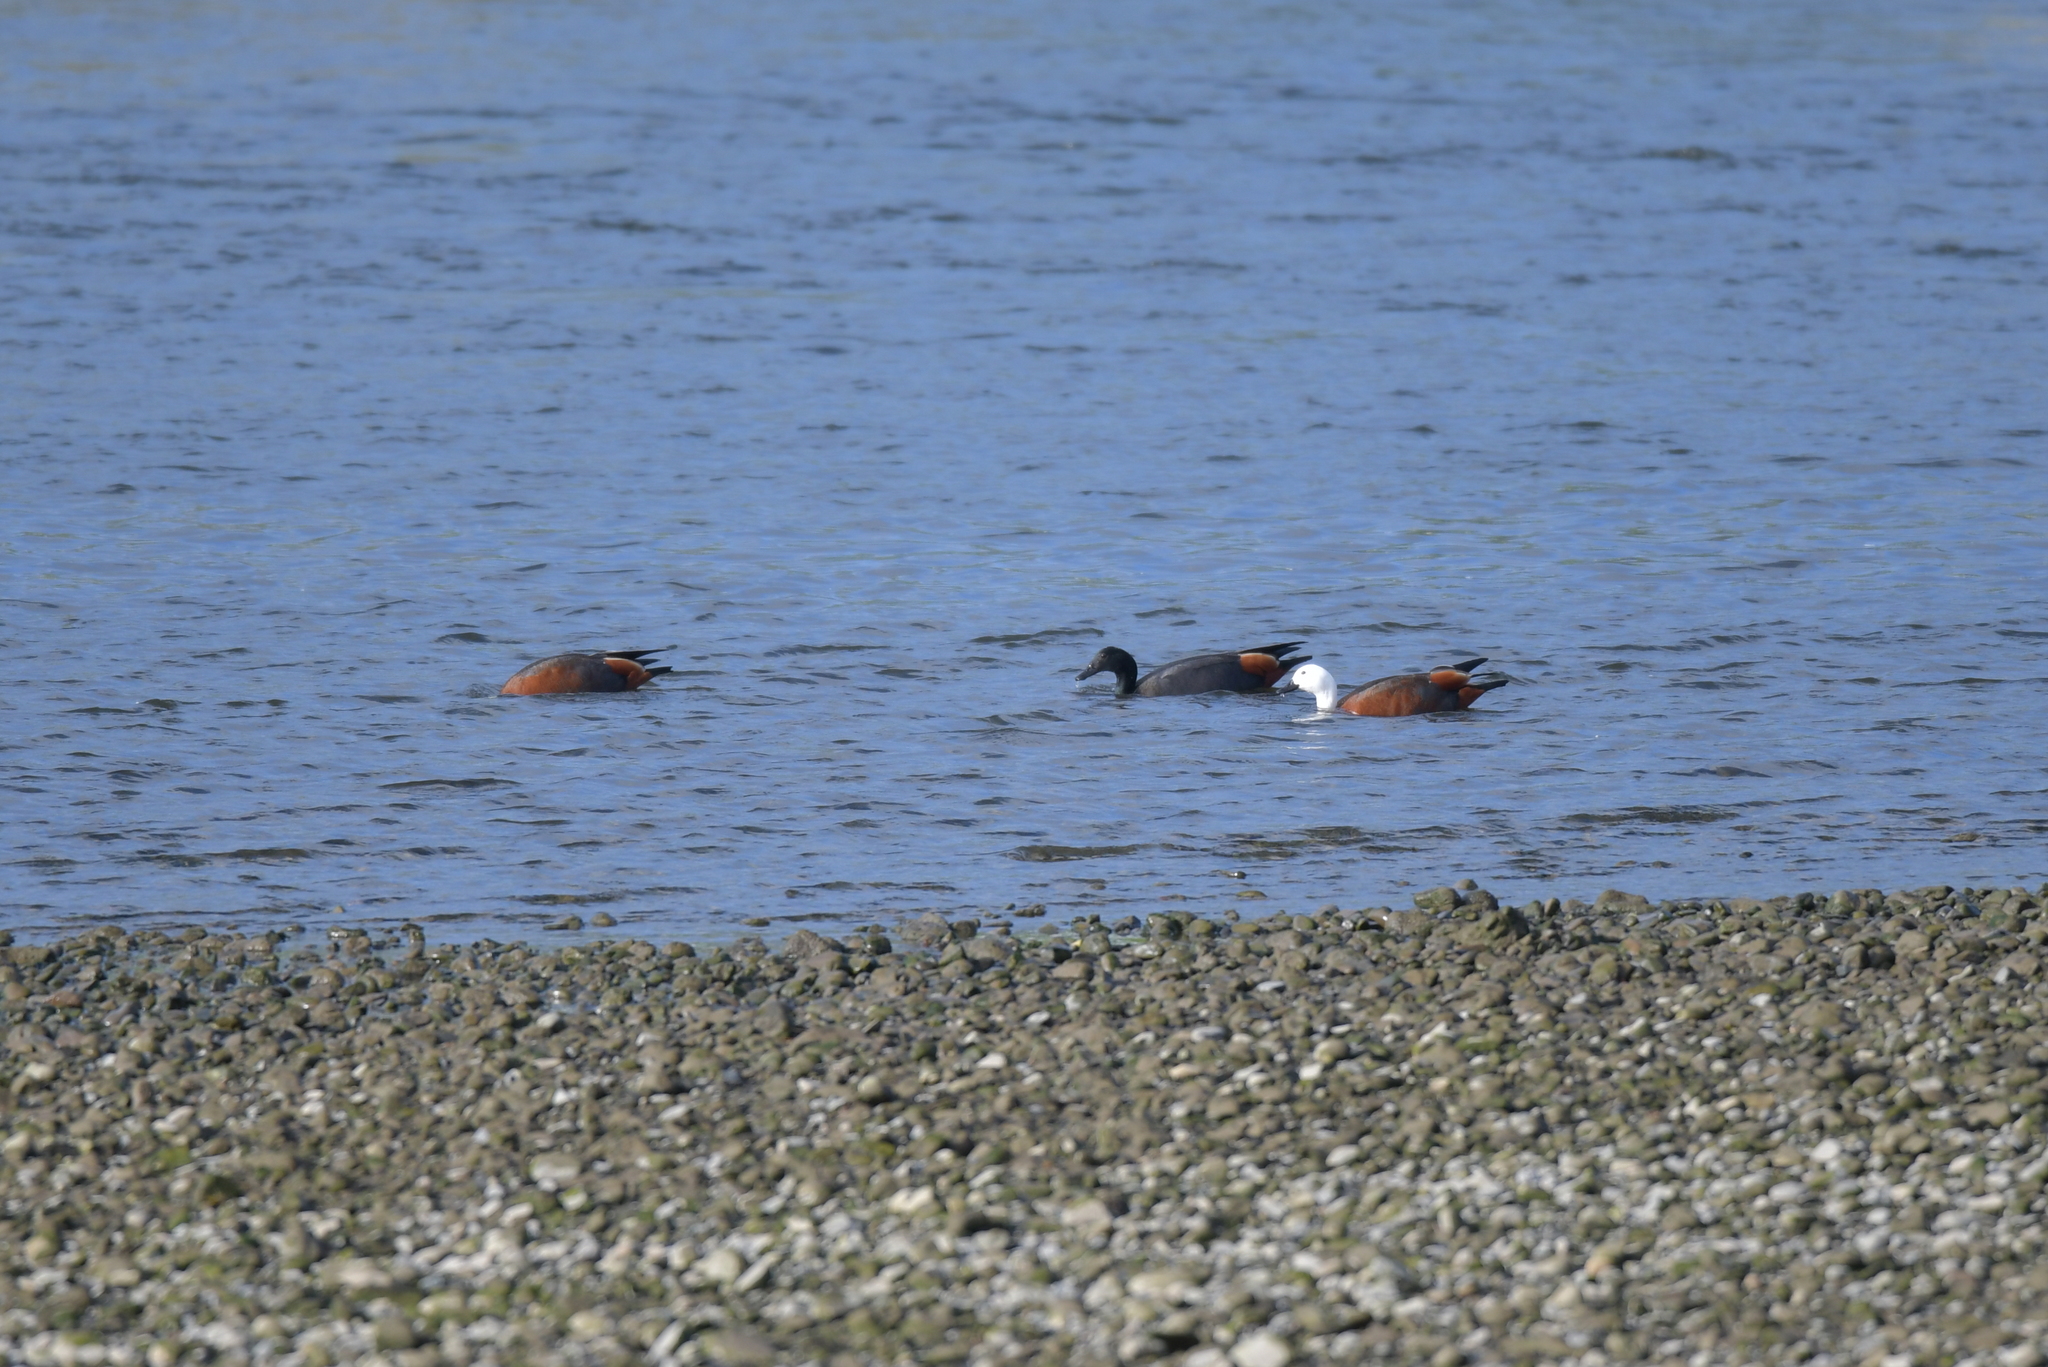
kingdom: Animalia
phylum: Chordata
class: Aves
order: Anseriformes
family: Anatidae
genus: Tadorna
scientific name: Tadorna variegata
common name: Paradise shelduck
